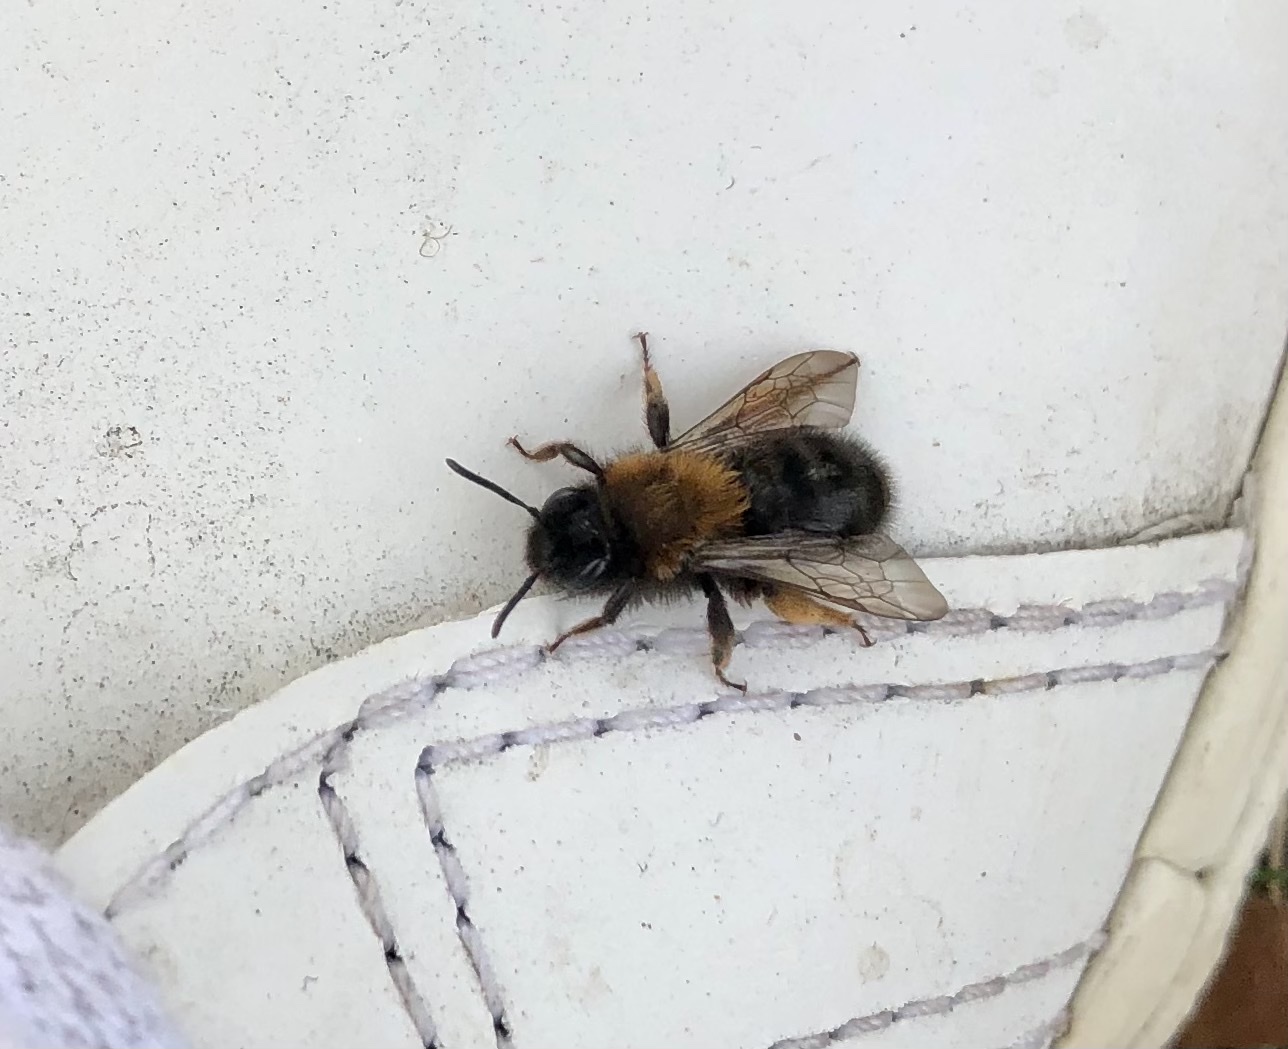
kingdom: Animalia
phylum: Arthropoda
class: Insecta
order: Hymenoptera
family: Andrenidae
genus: Andrena
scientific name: Andrena clarkella
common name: Clarke's mining bee
